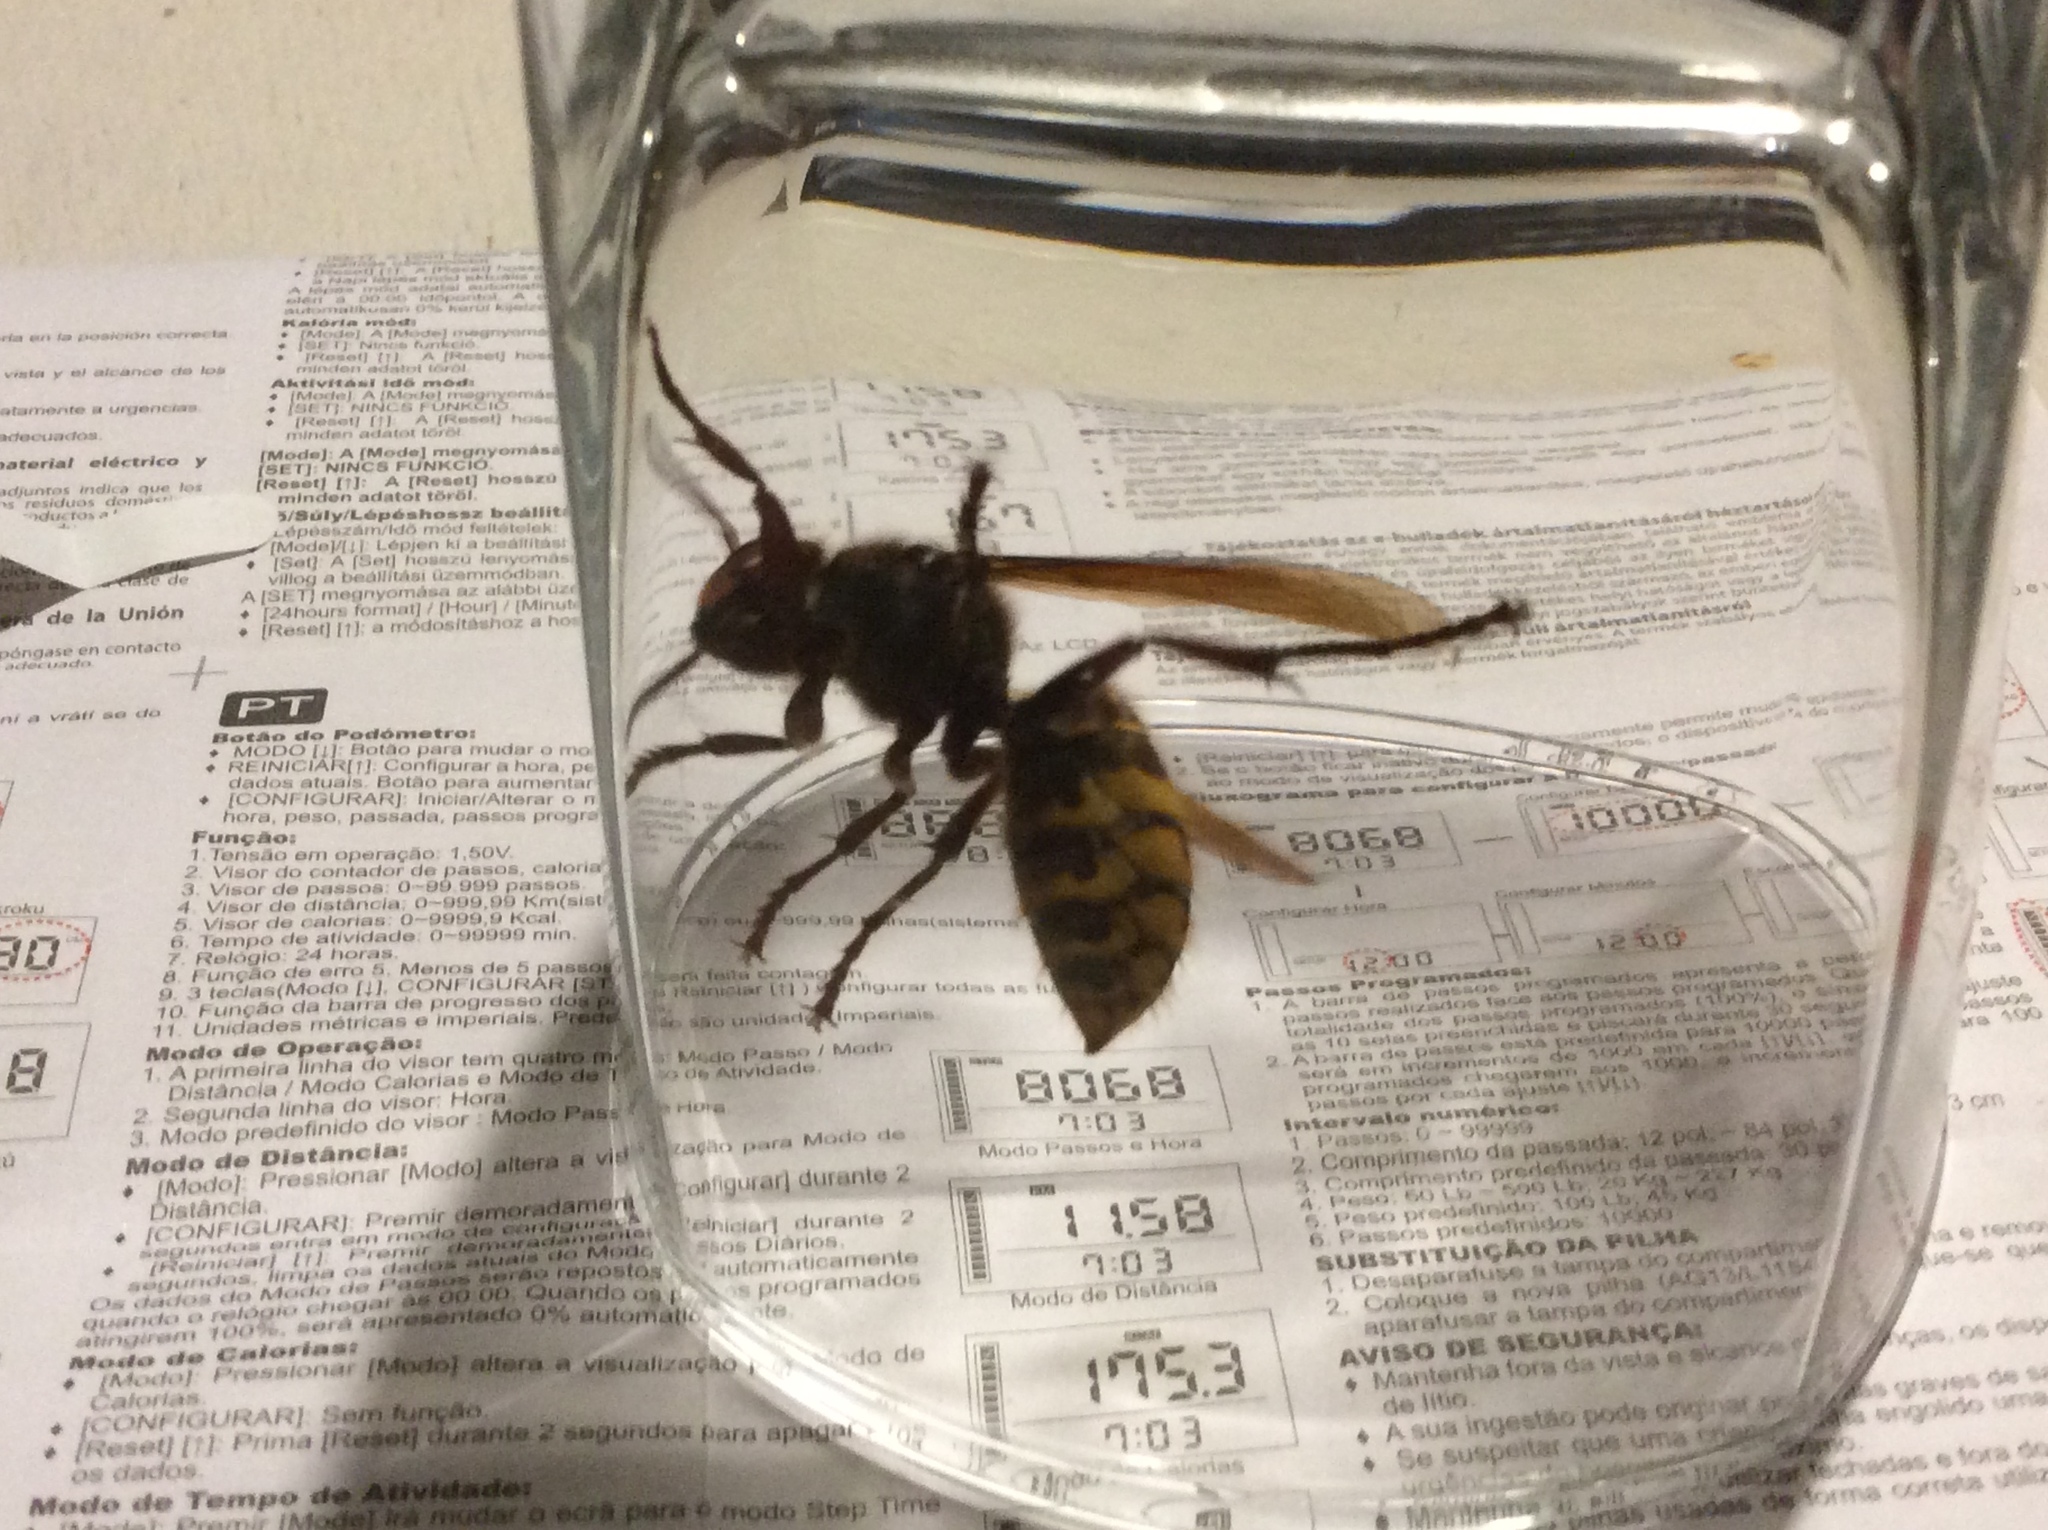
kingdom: Animalia
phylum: Arthropoda
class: Insecta
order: Hymenoptera
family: Vespidae
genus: Vespa
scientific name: Vespa crabro
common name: Hornet
